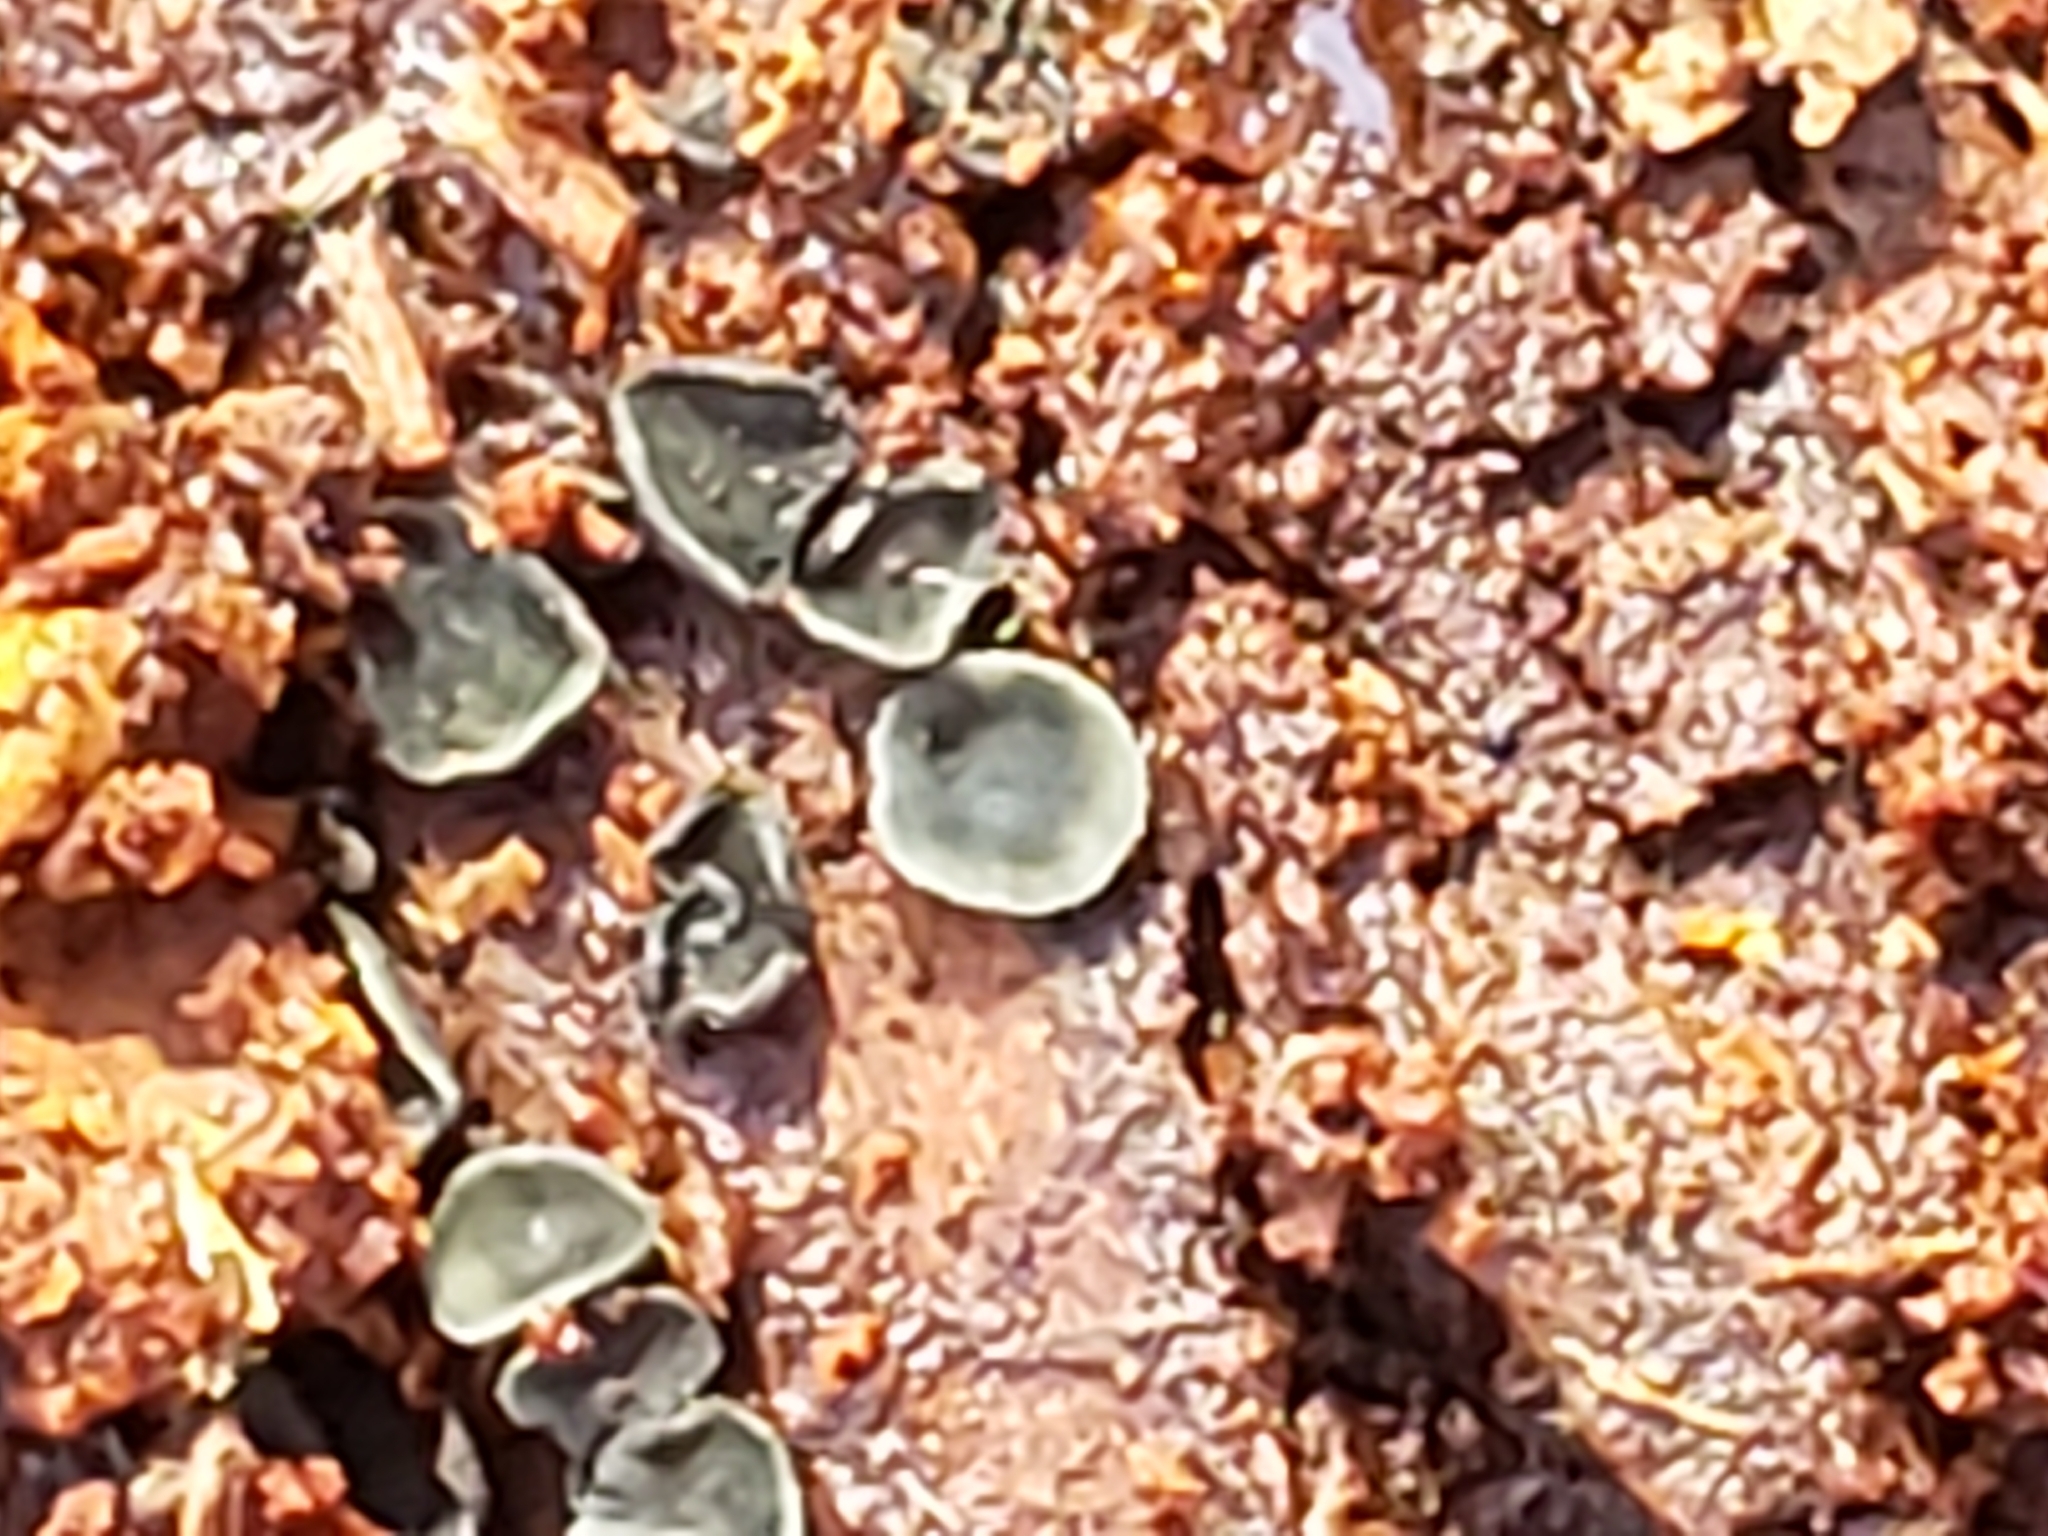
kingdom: Fungi
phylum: Ascomycota
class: Leotiomycetes
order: Helotiales
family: Chlorospleniaceae
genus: Chlorosplenium
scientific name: Chlorosplenium chlora
